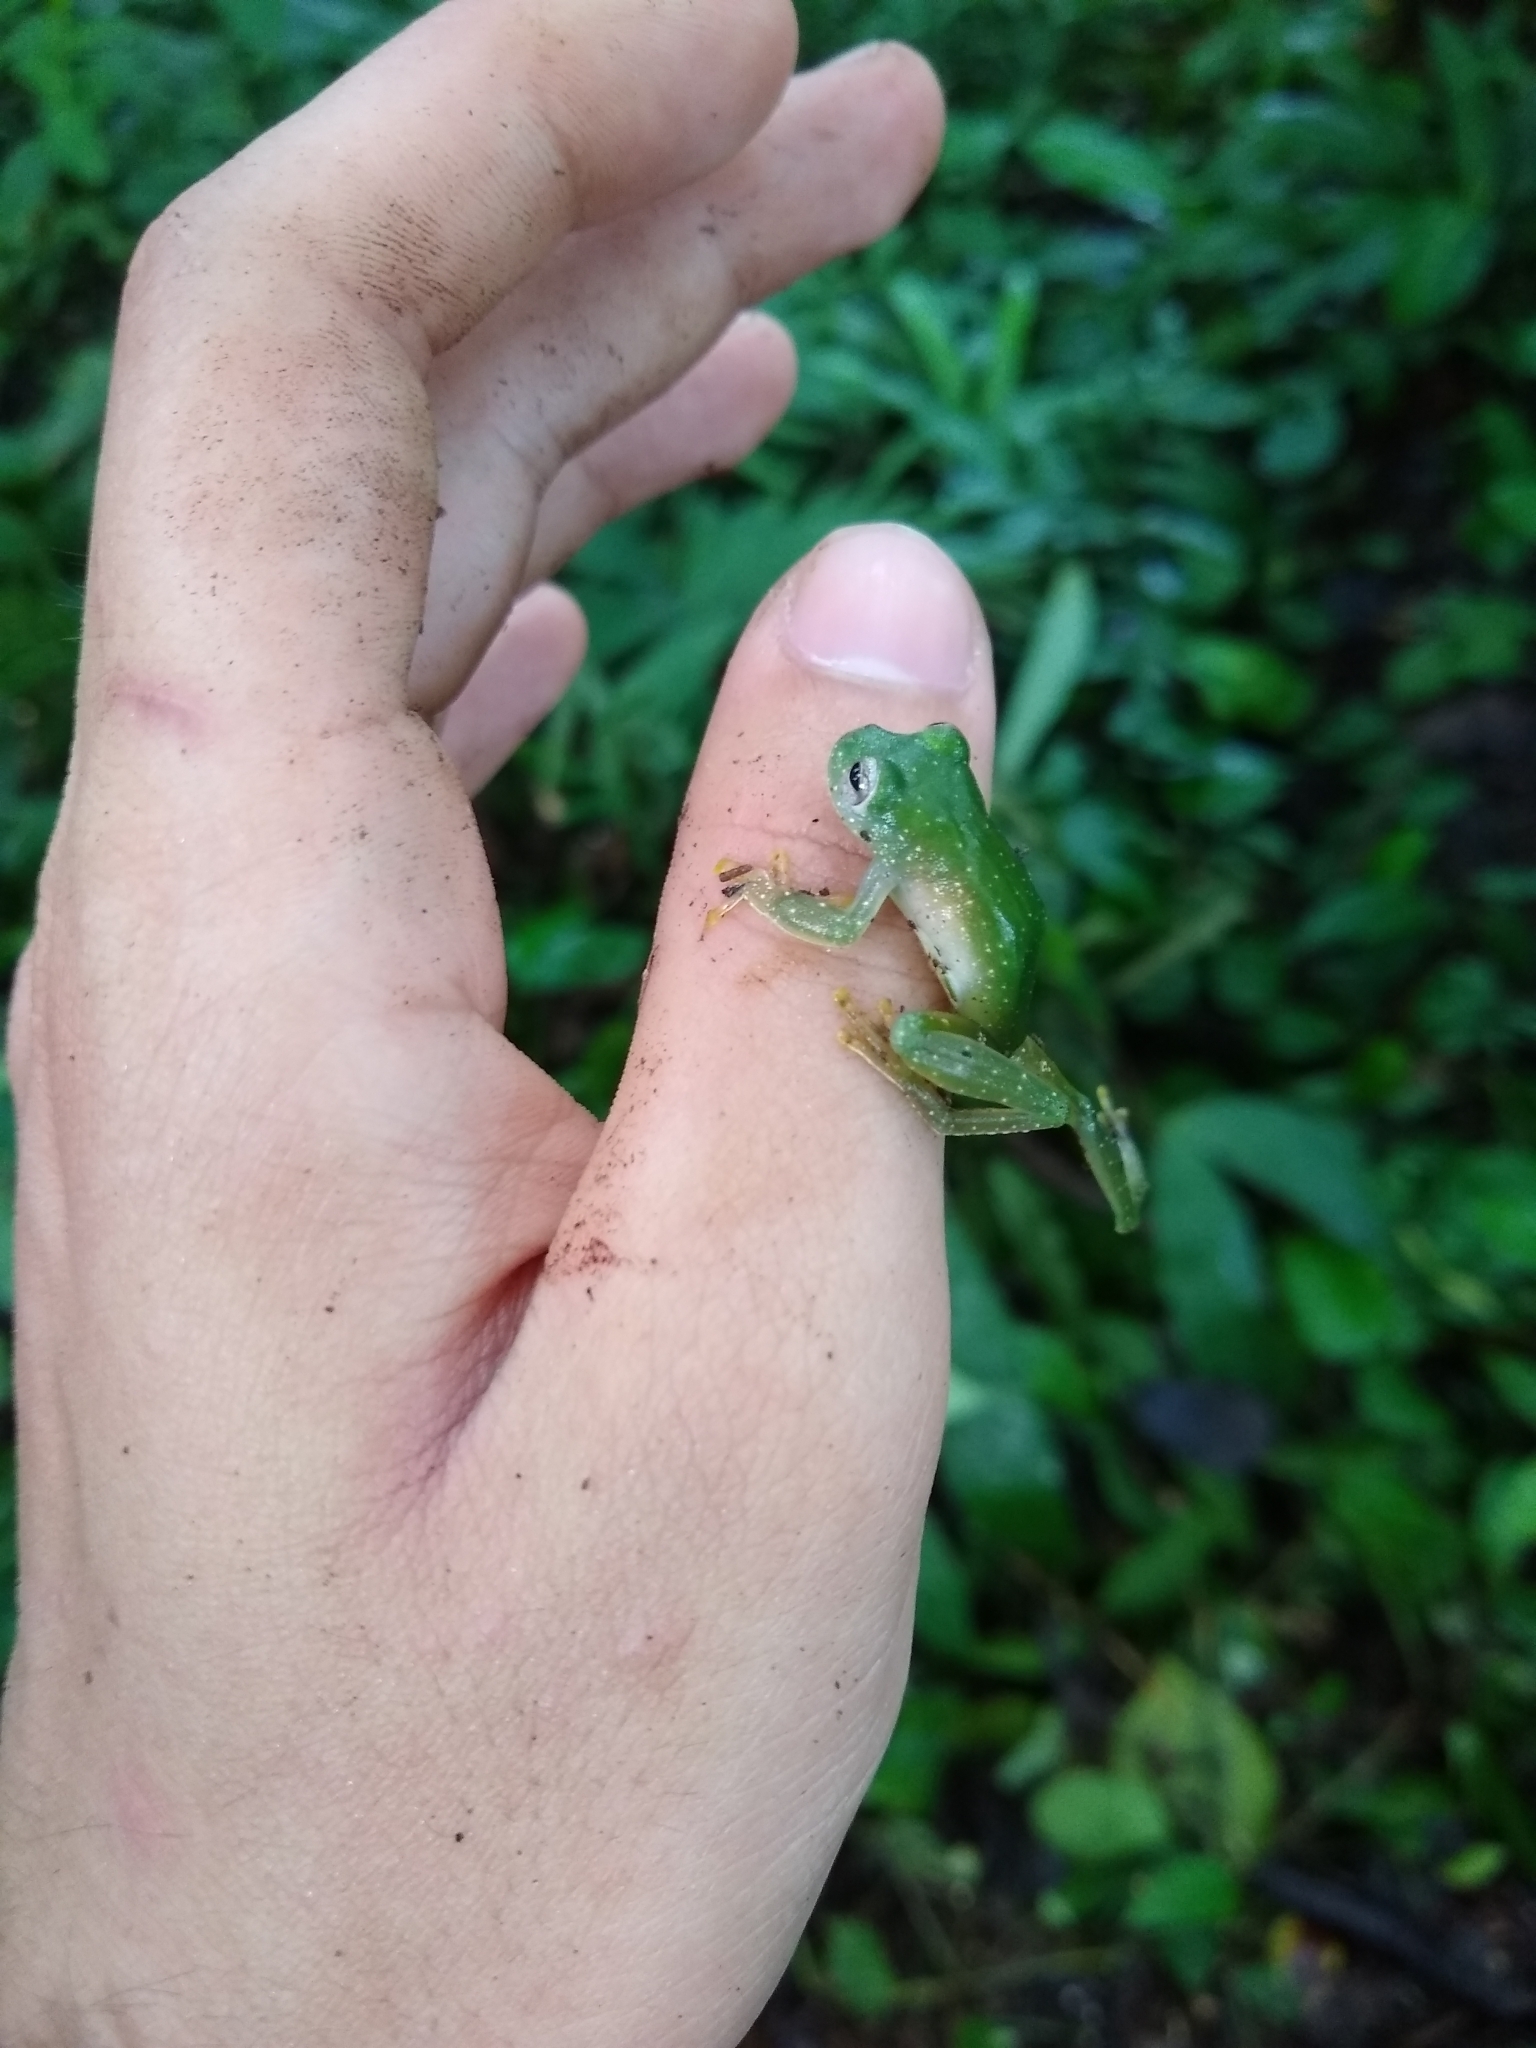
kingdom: Animalia
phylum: Chordata
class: Amphibia
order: Anura
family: Centrolenidae
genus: Teratohyla
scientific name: Teratohyla pulverata
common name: Chiriqui glass frog
